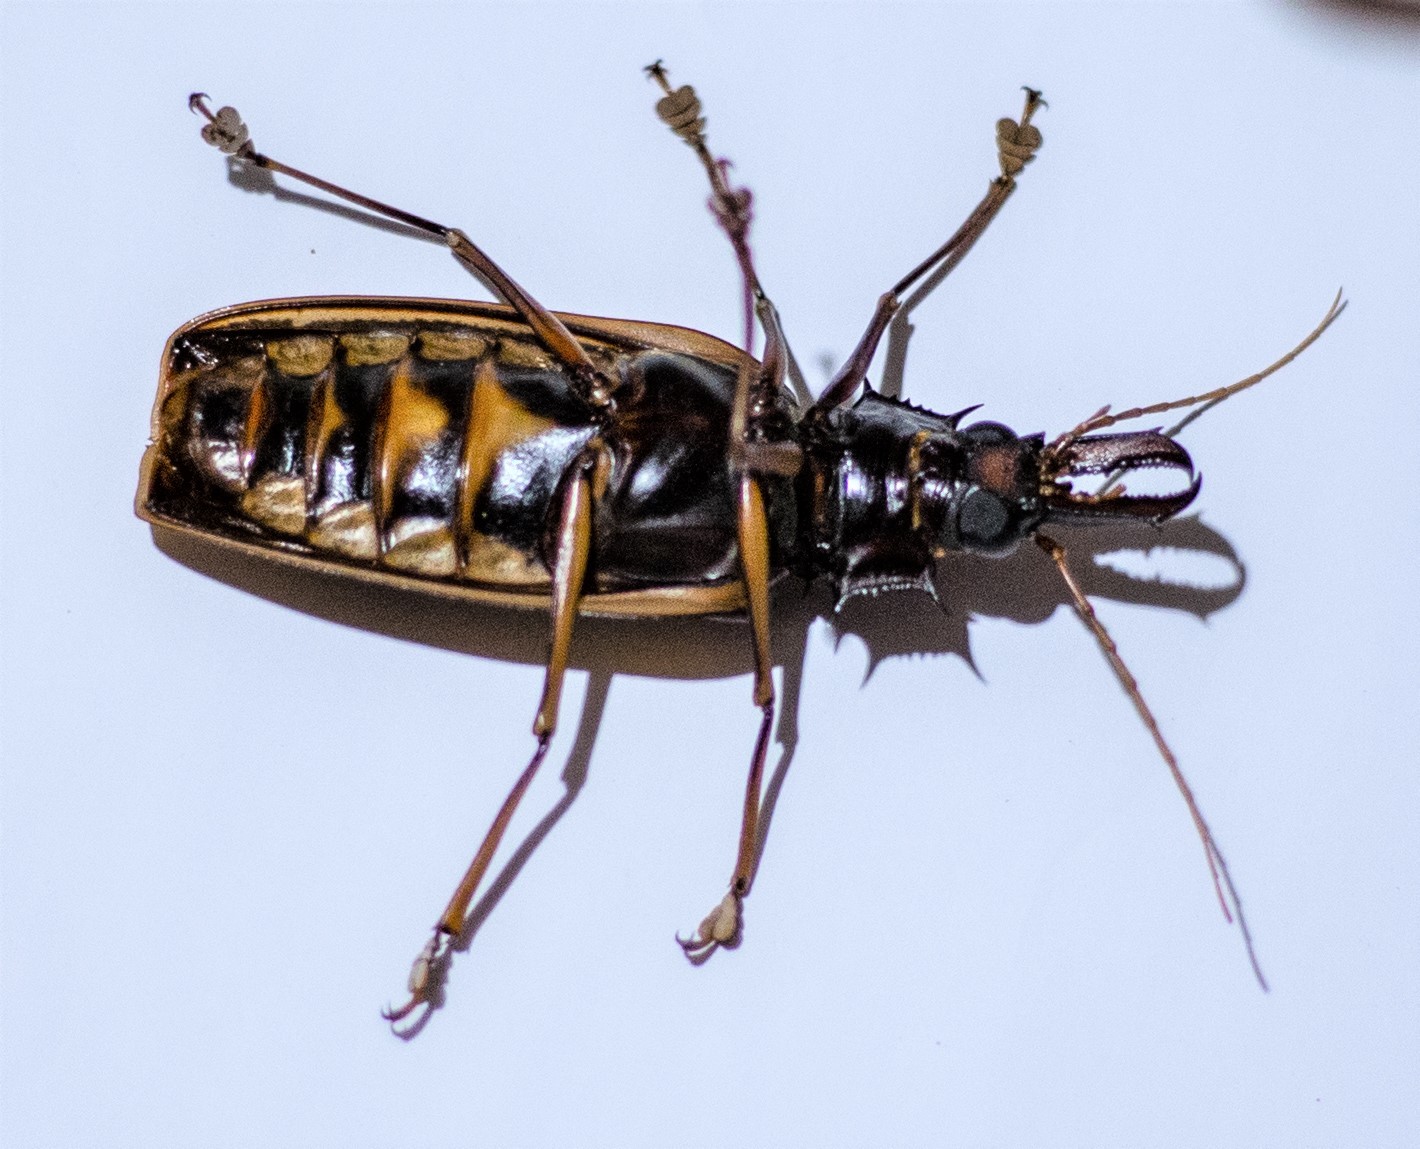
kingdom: Animalia
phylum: Arthropoda
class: Insecta
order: Coleoptera
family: Cerambycidae
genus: Macrodontia
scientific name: Macrodontia cervicornis
